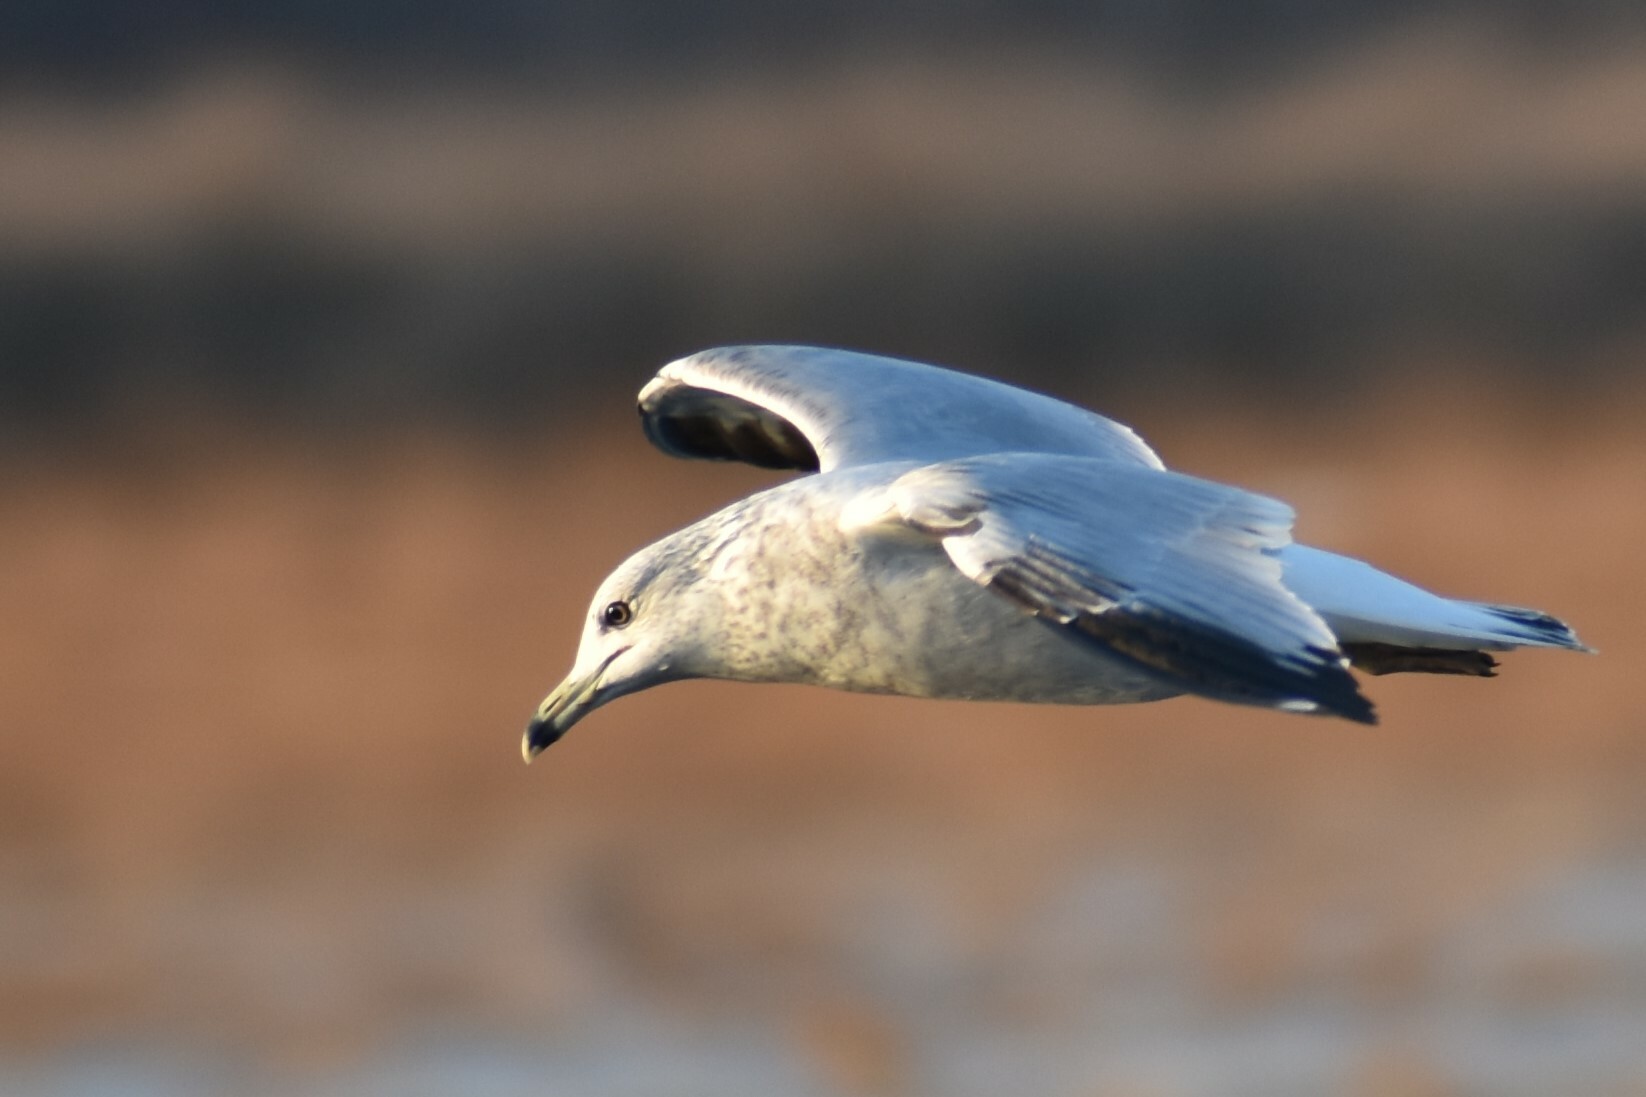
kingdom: Animalia
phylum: Chordata
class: Aves
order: Charadriiformes
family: Laridae
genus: Larus
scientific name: Larus delawarensis
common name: Ring-billed gull
